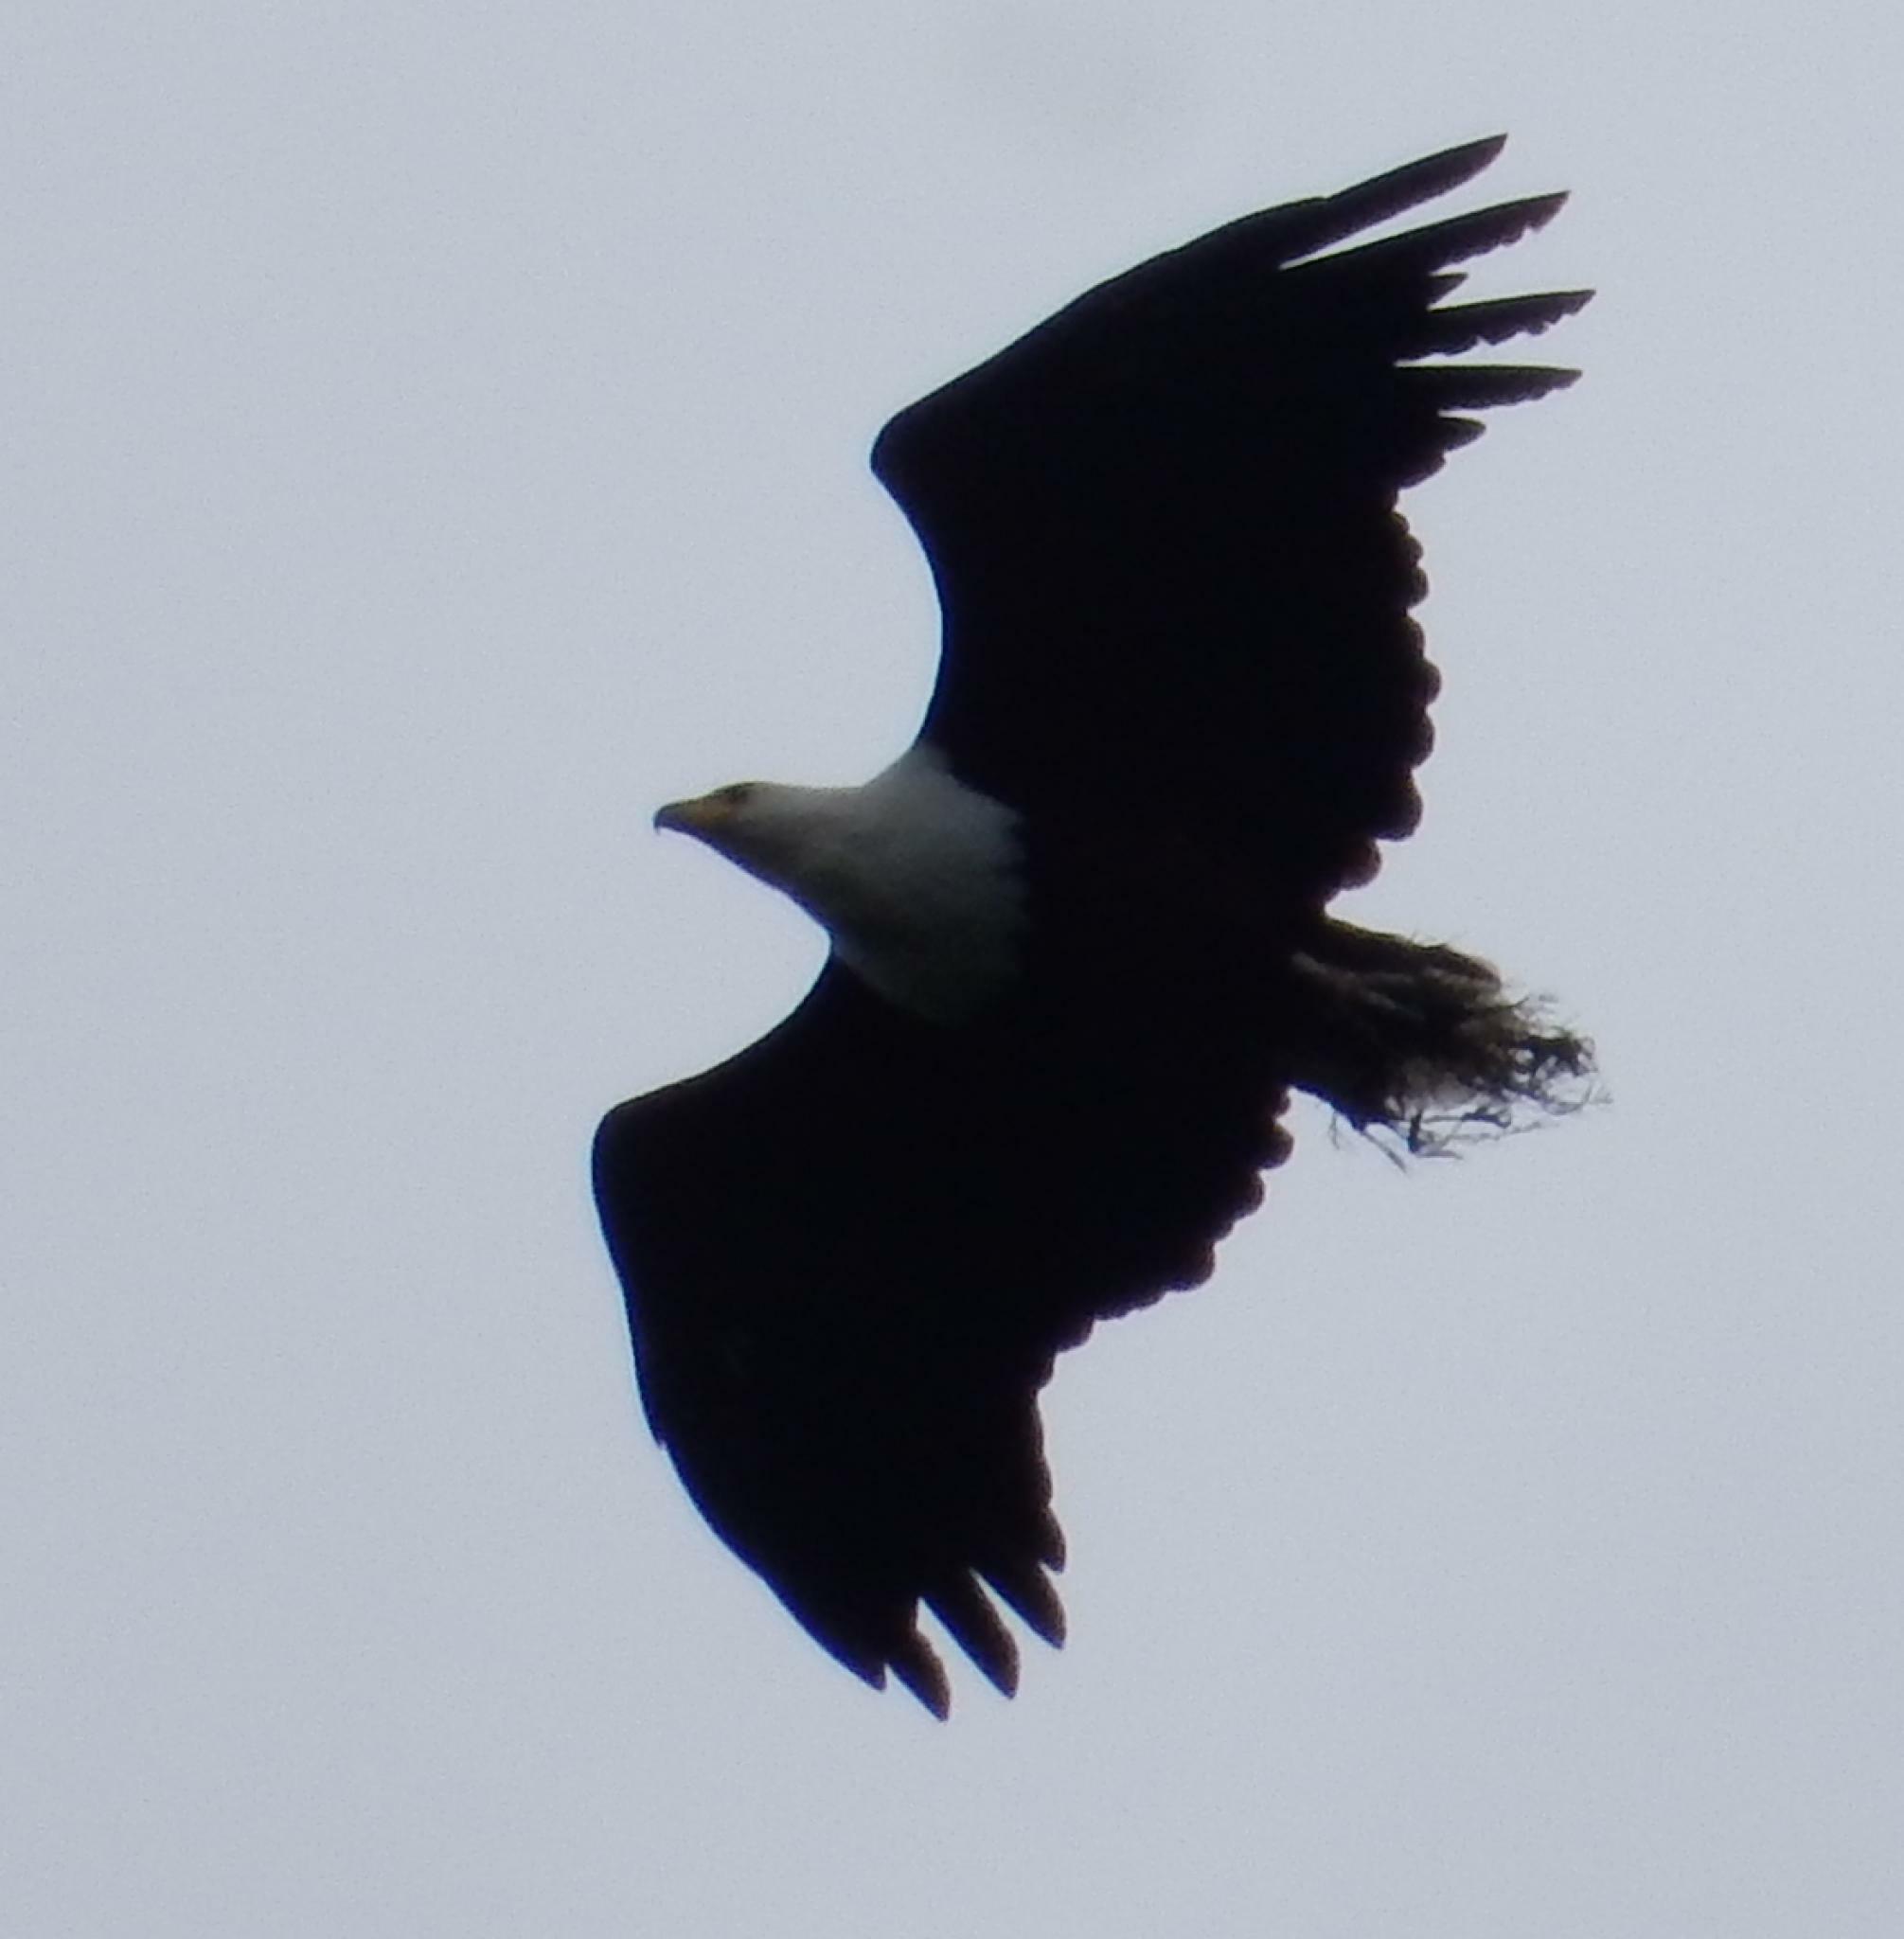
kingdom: Animalia
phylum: Chordata
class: Aves
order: Accipitriformes
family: Accipitridae
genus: Haliaeetus
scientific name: Haliaeetus vocifer
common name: African fish eagle
